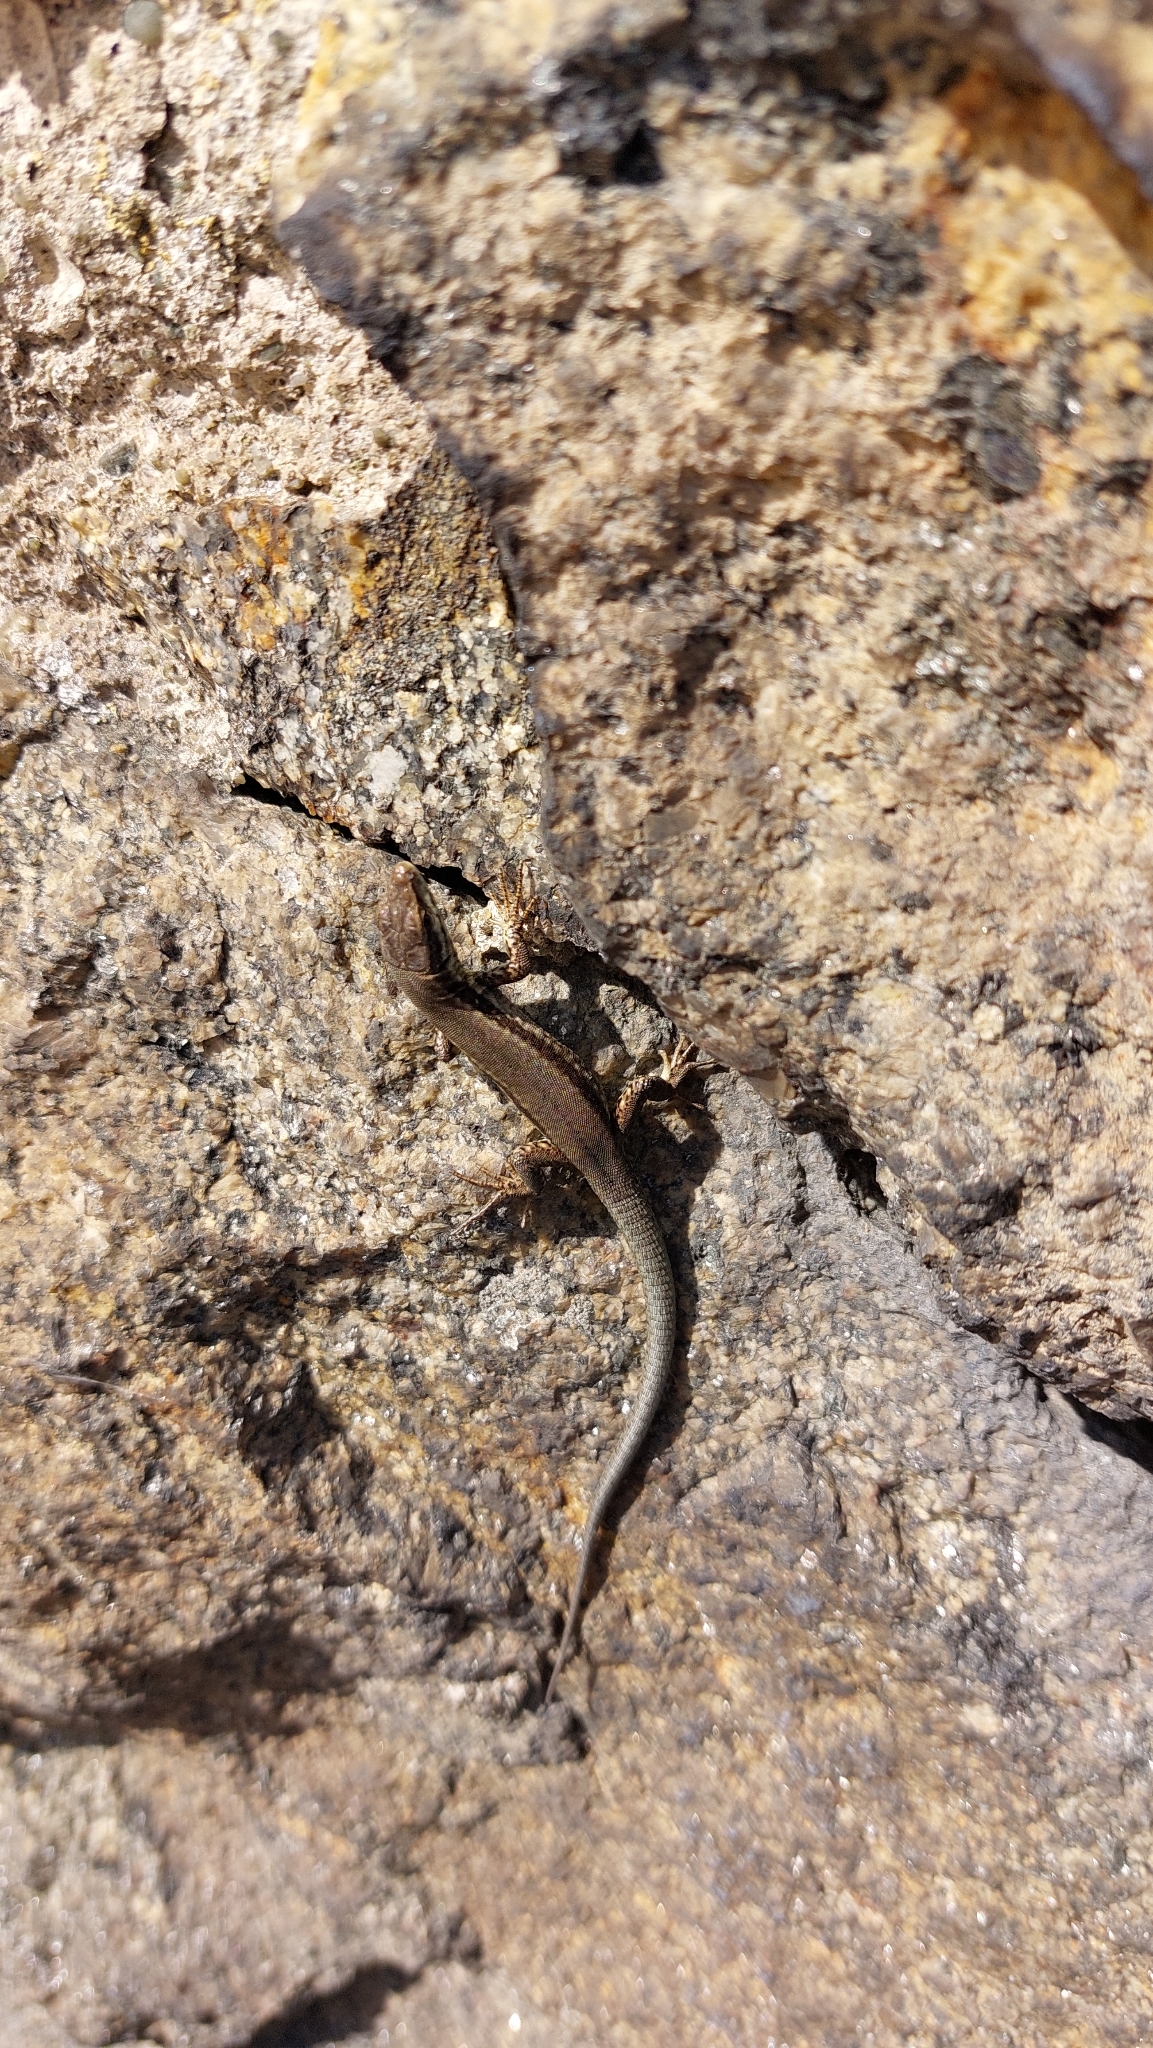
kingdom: Animalia
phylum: Chordata
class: Squamata
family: Lacertidae
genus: Podarcis
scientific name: Podarcis muralis
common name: Common wall lizard
